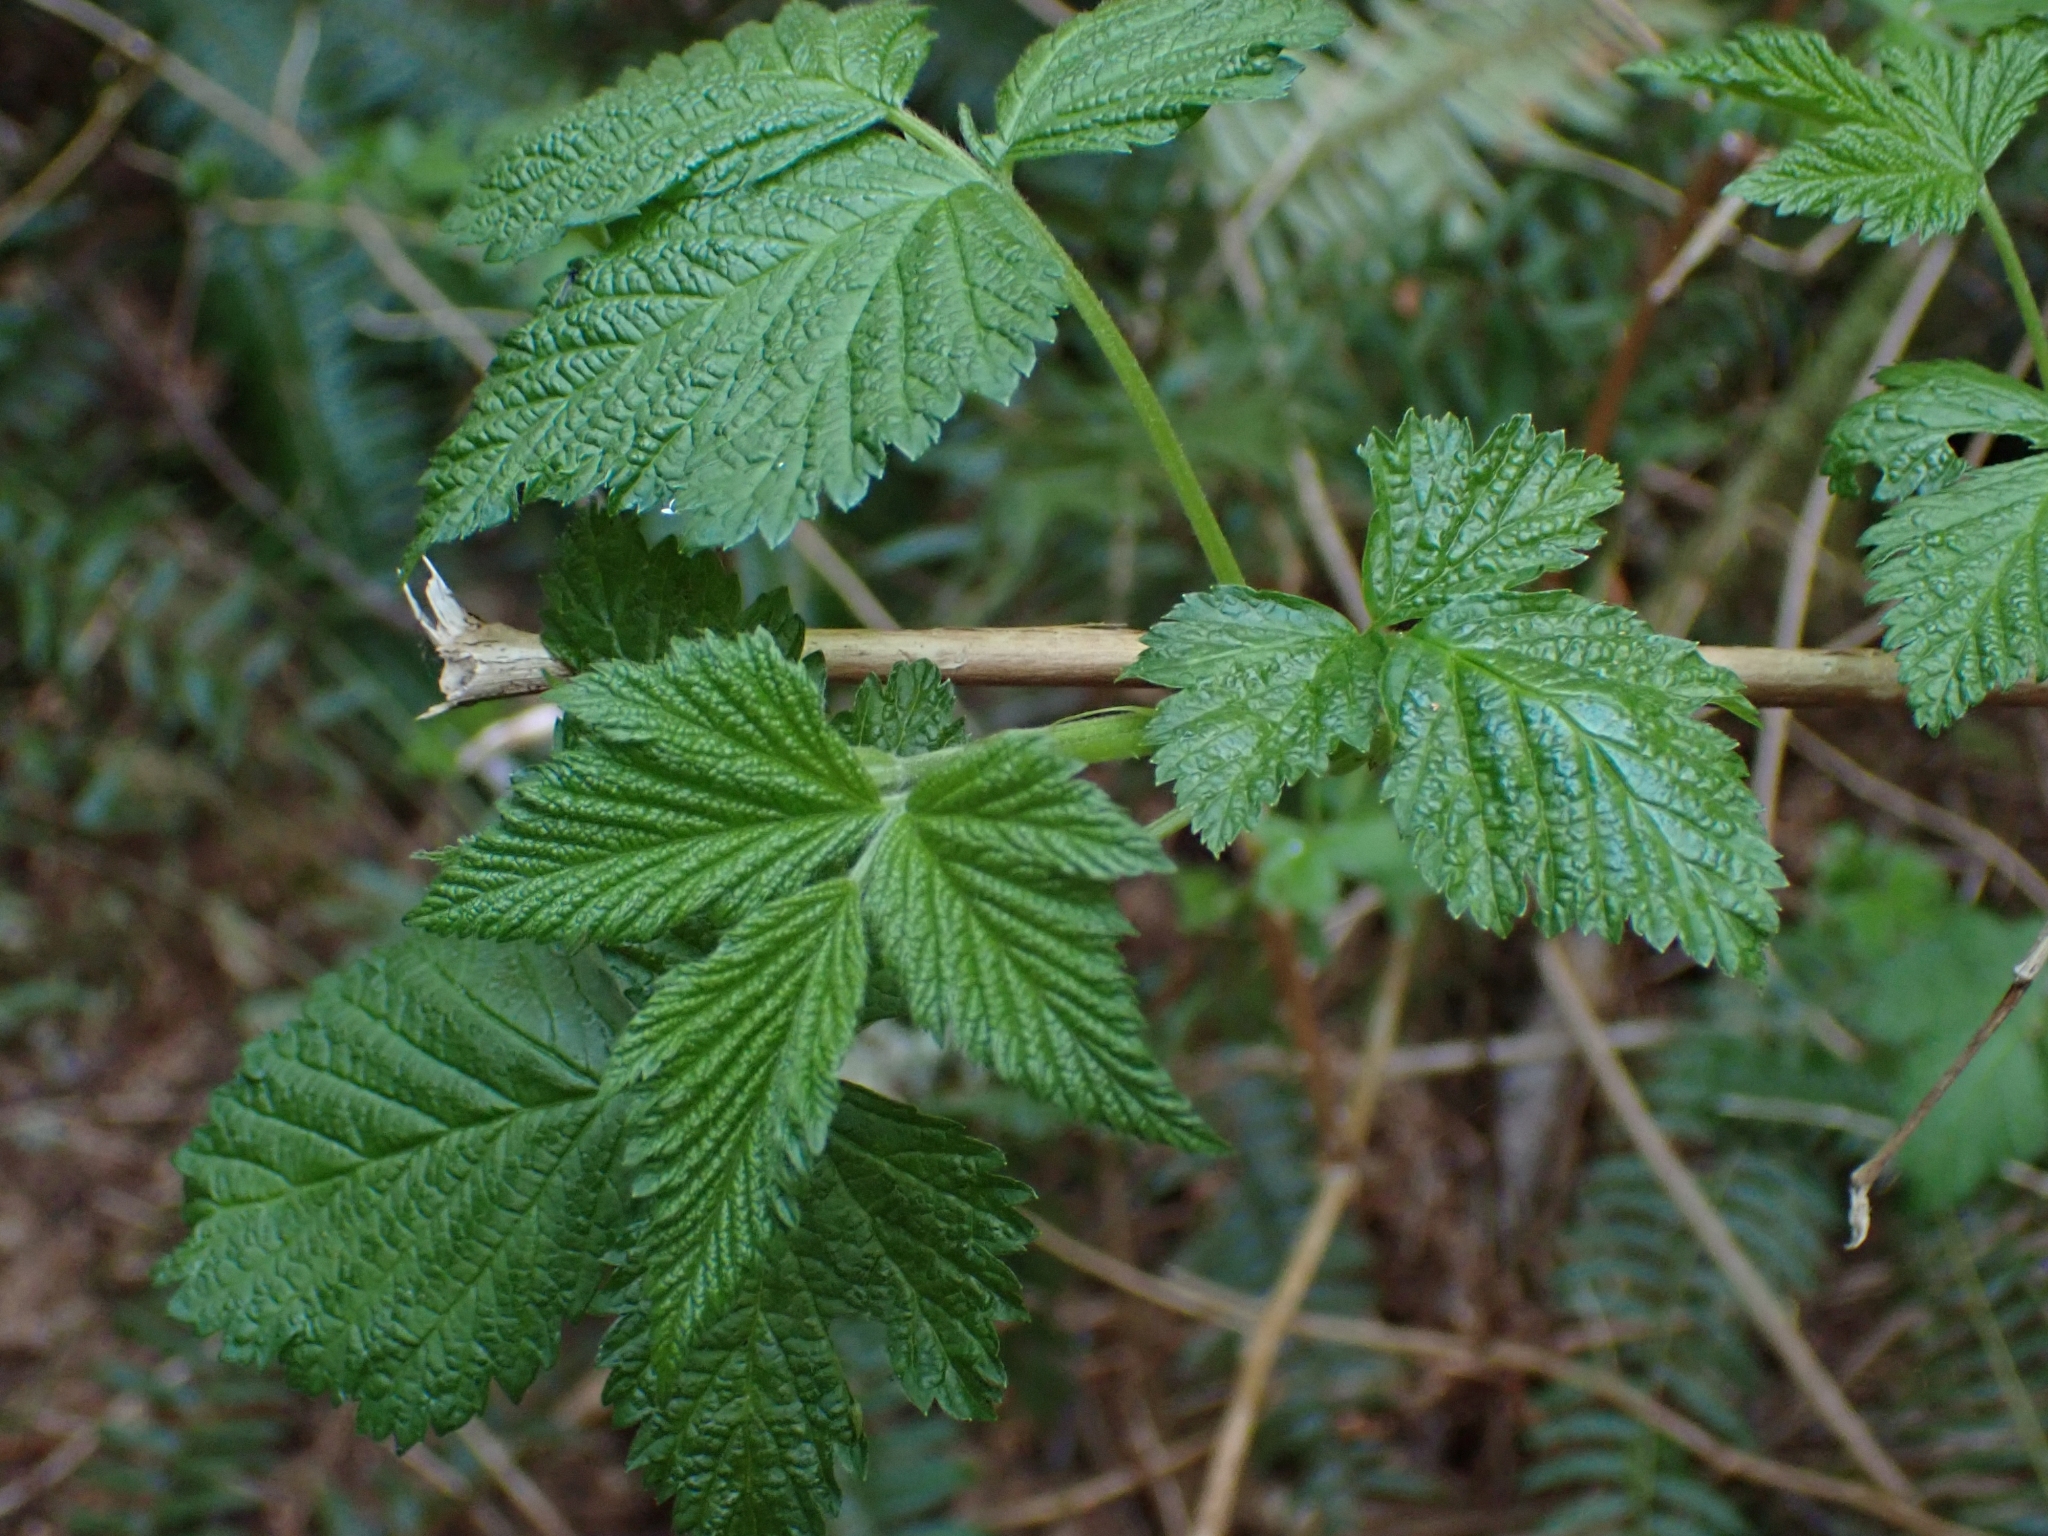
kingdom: Plantae
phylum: Tracheophyta
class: Magnoliopsida
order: Rosales
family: Rosaceae
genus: Rubus
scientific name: Rubus spectabilis
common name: Salmonberry
